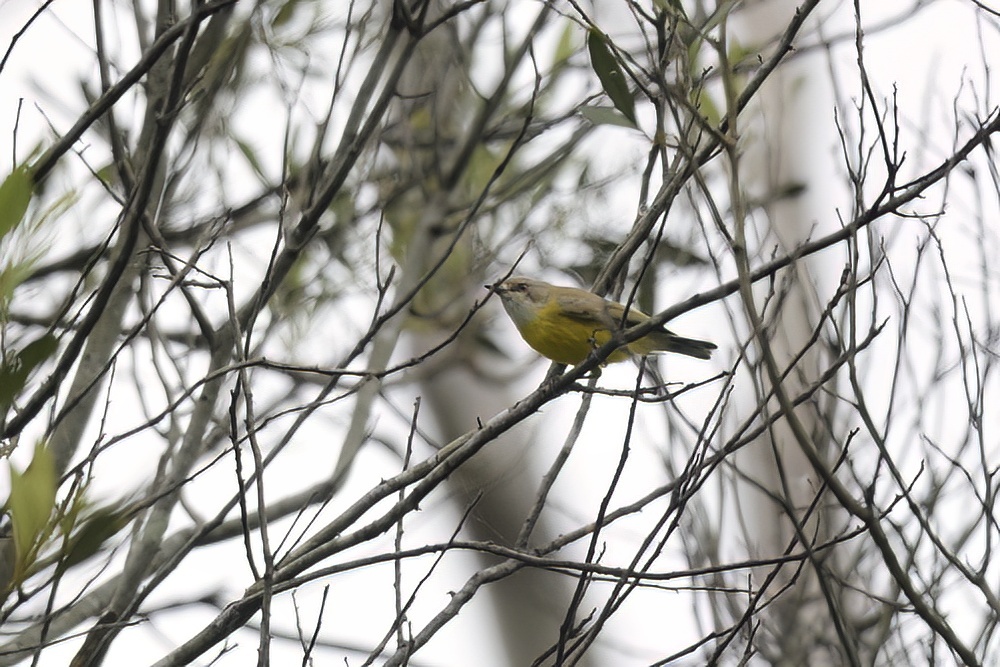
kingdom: Animalia
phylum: Chordata
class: Aves
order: Passeriformes
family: Acanthizidae
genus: Gerygone
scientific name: Gerygone olivacea
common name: White-throated gerygone
